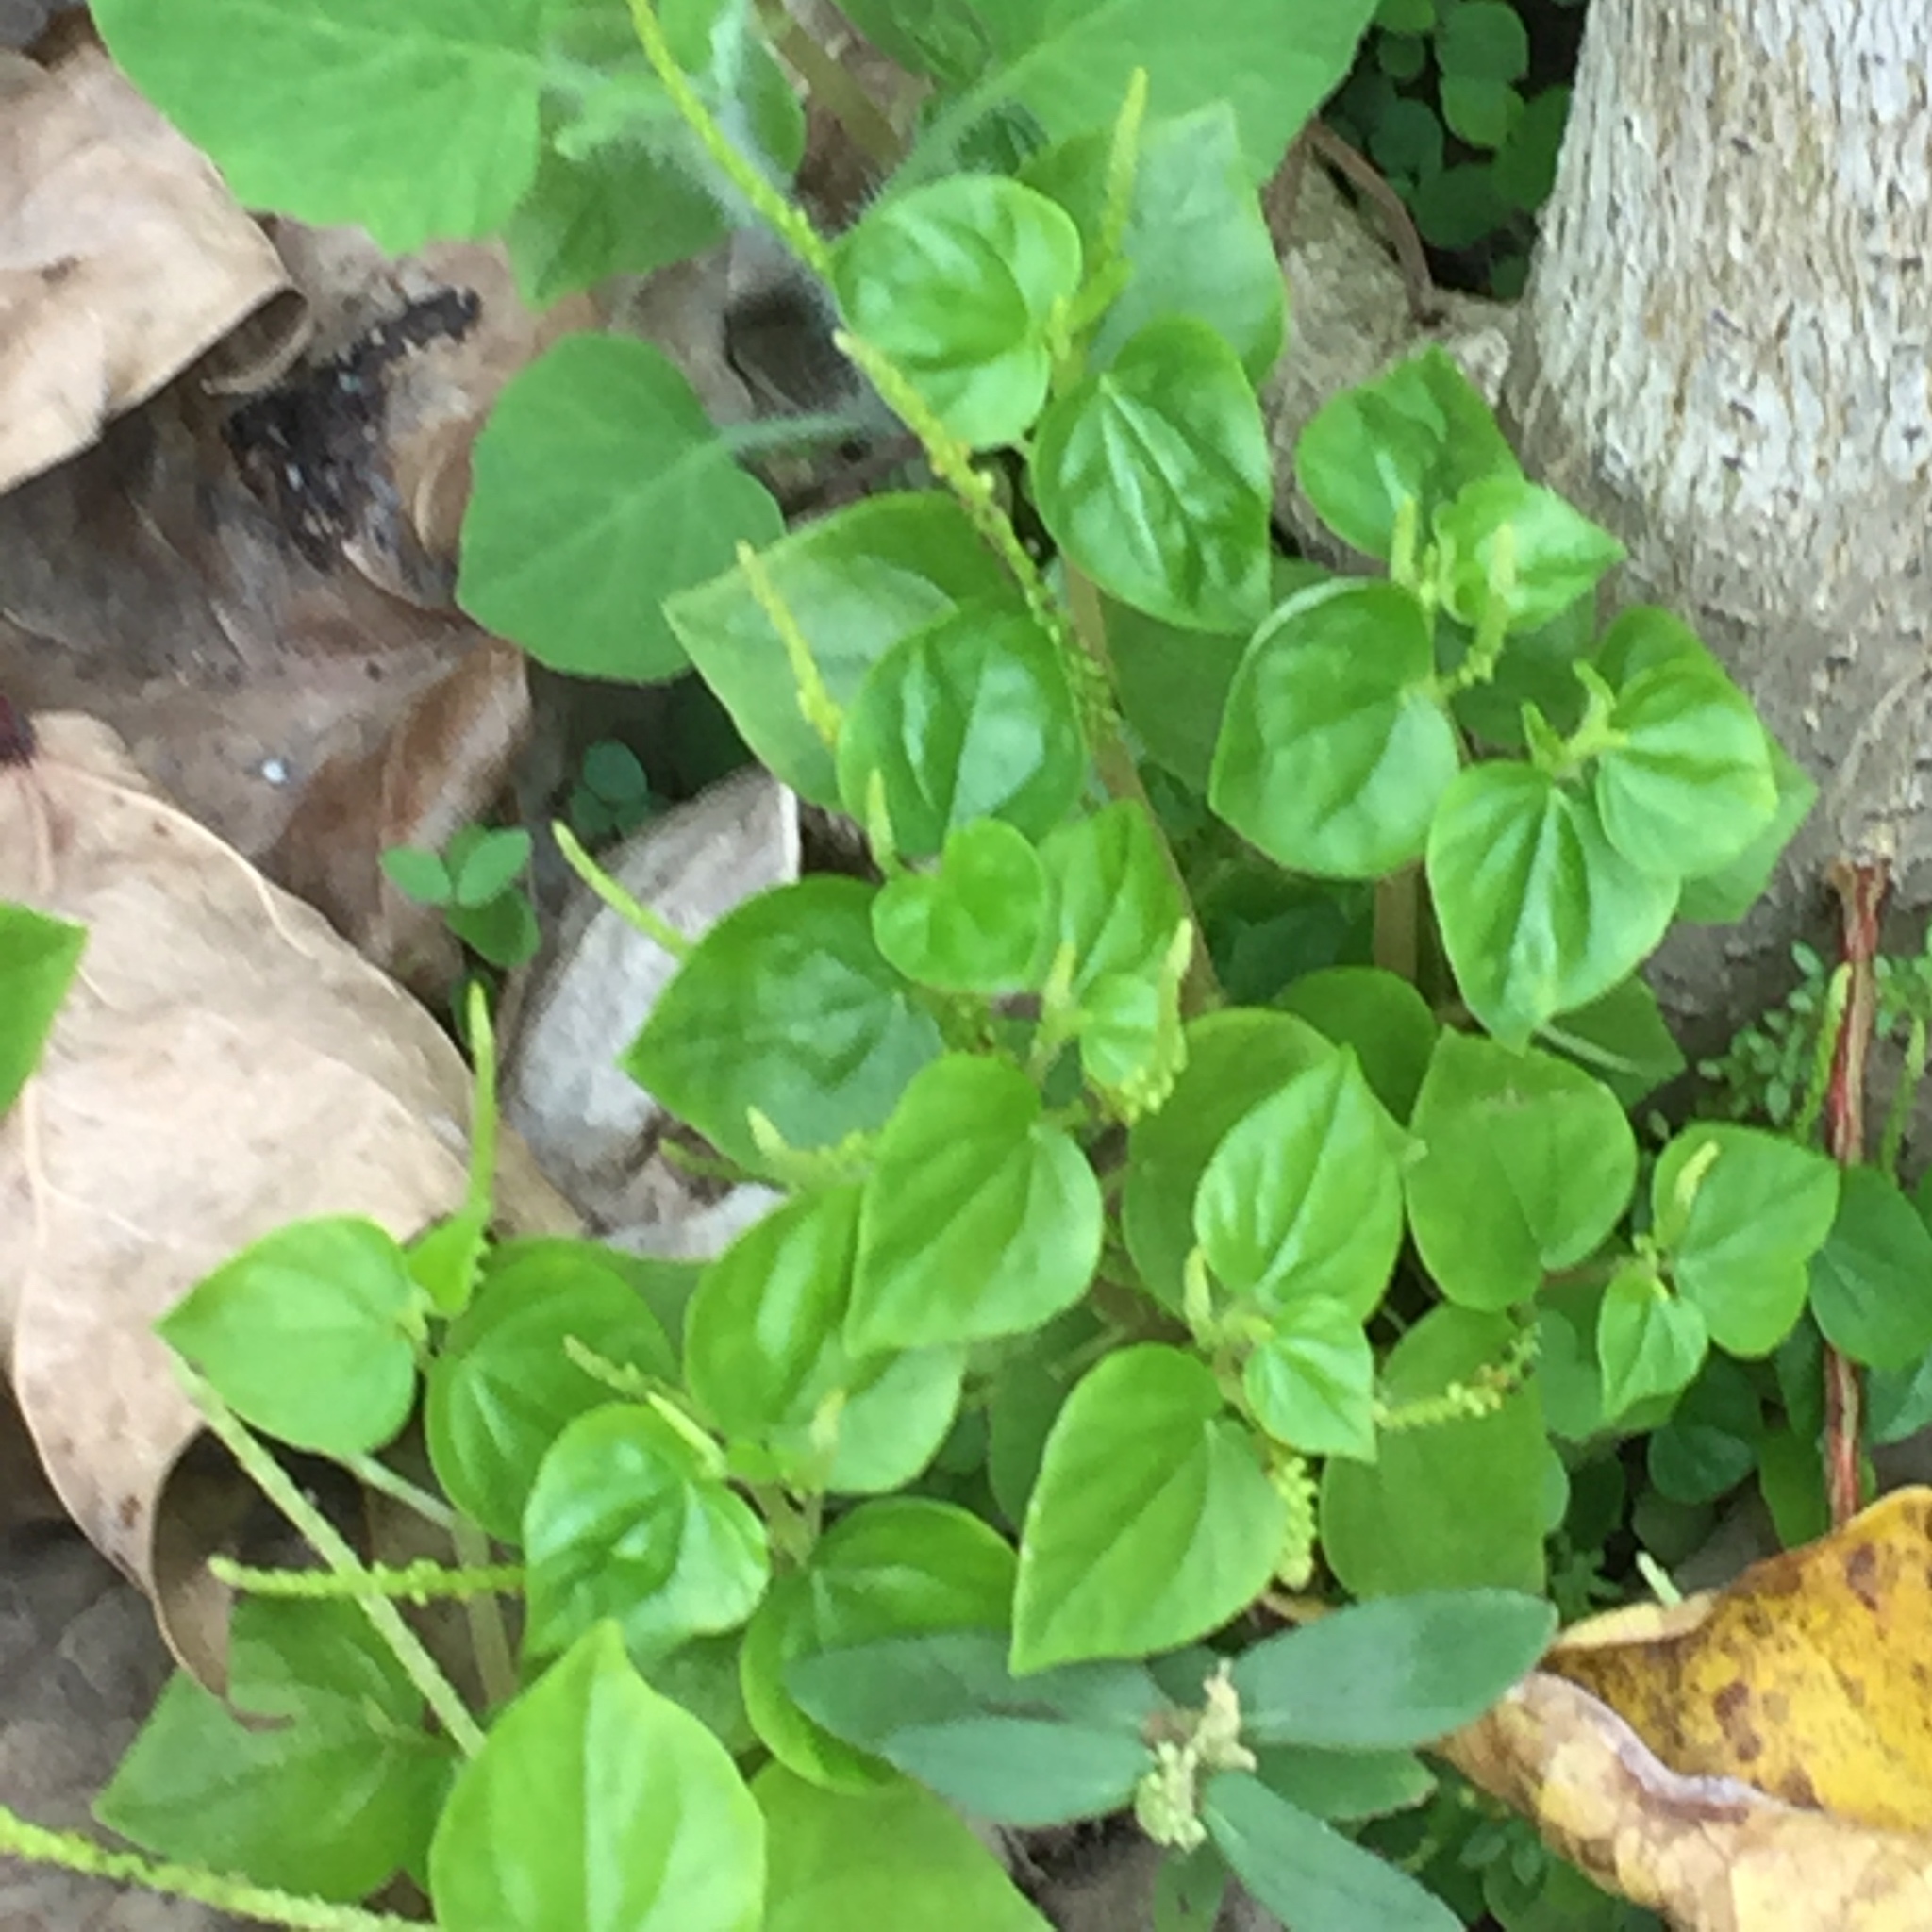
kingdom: Plantae
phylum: Tracheophyta
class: Magnoliopsida
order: Piperales
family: Piperaceae
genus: Peperomia
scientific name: Peperomia pellucida
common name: Man to man
